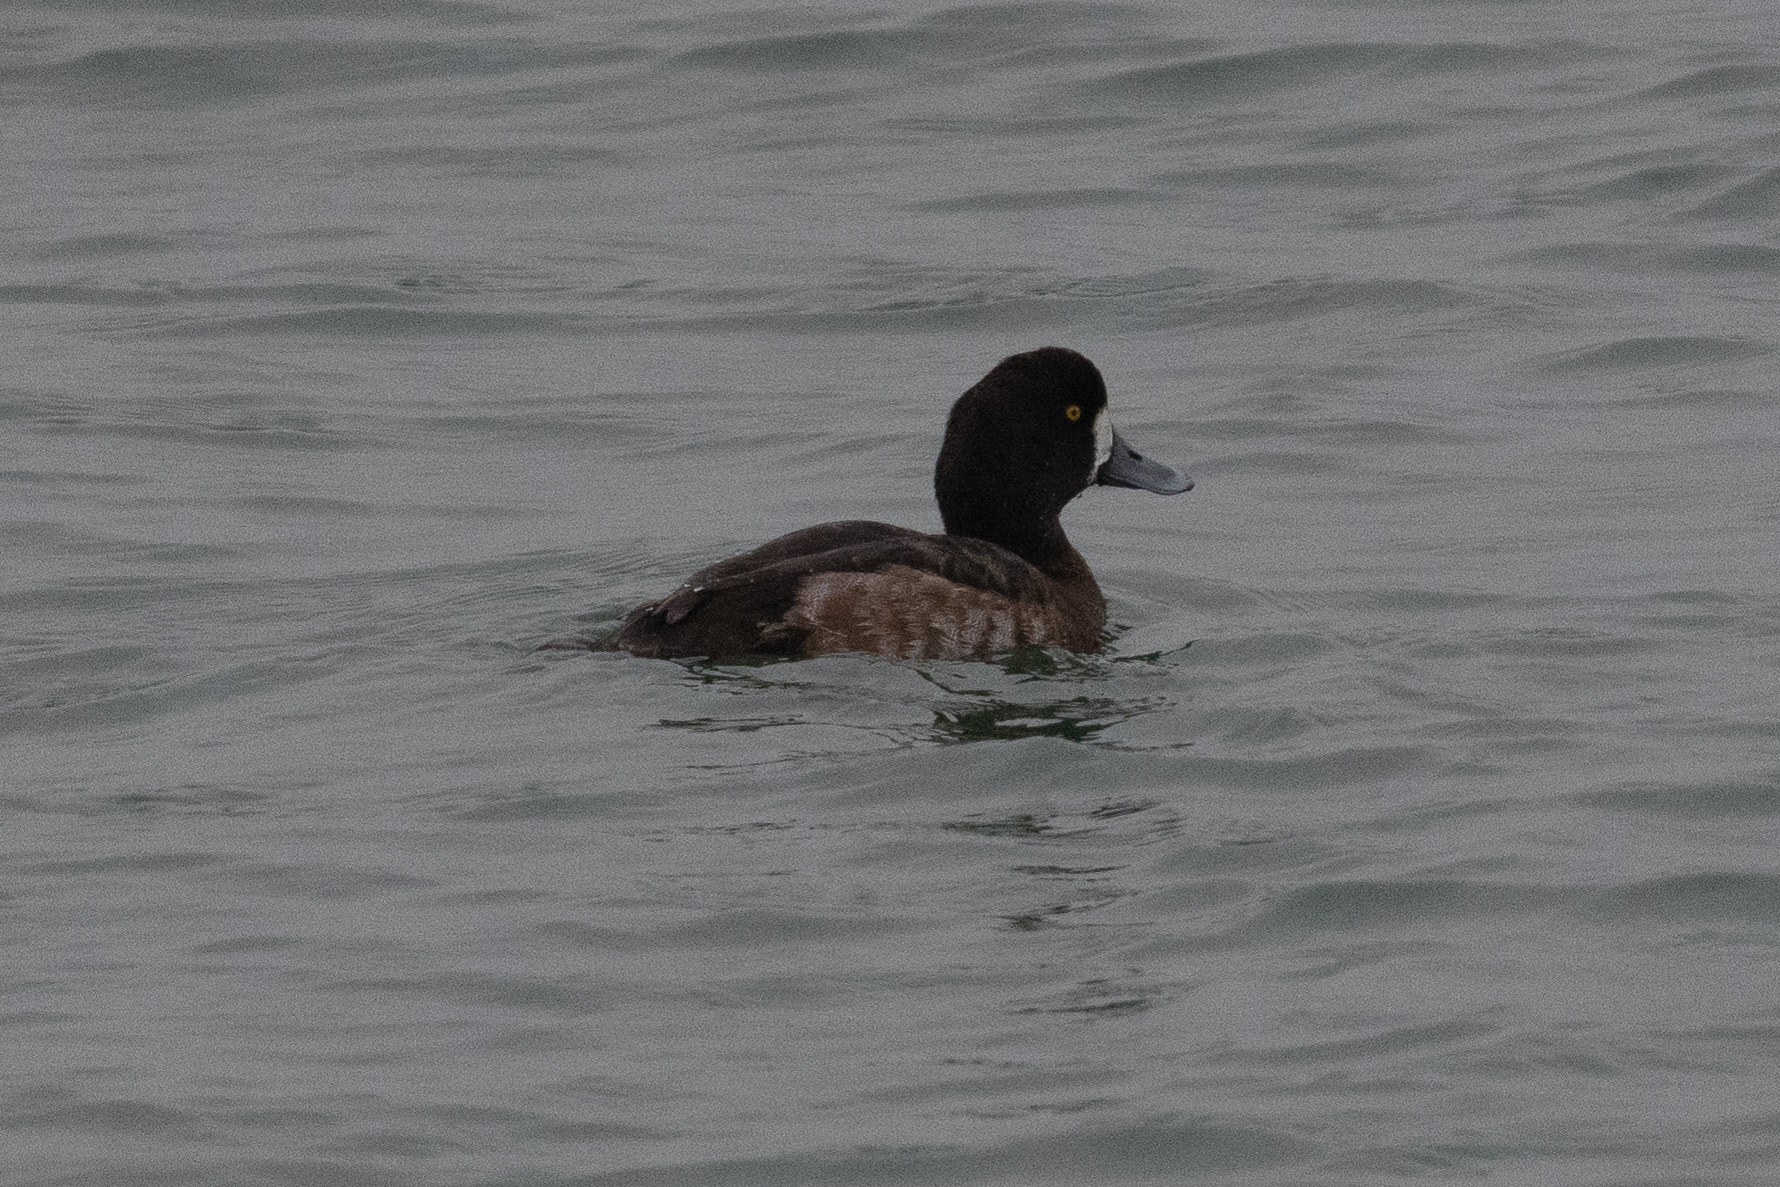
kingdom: Animalia
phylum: Chordata
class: Aves
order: Anseriformes
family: Anatidae
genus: Aythya
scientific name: Aythya marila
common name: Greater scaup
